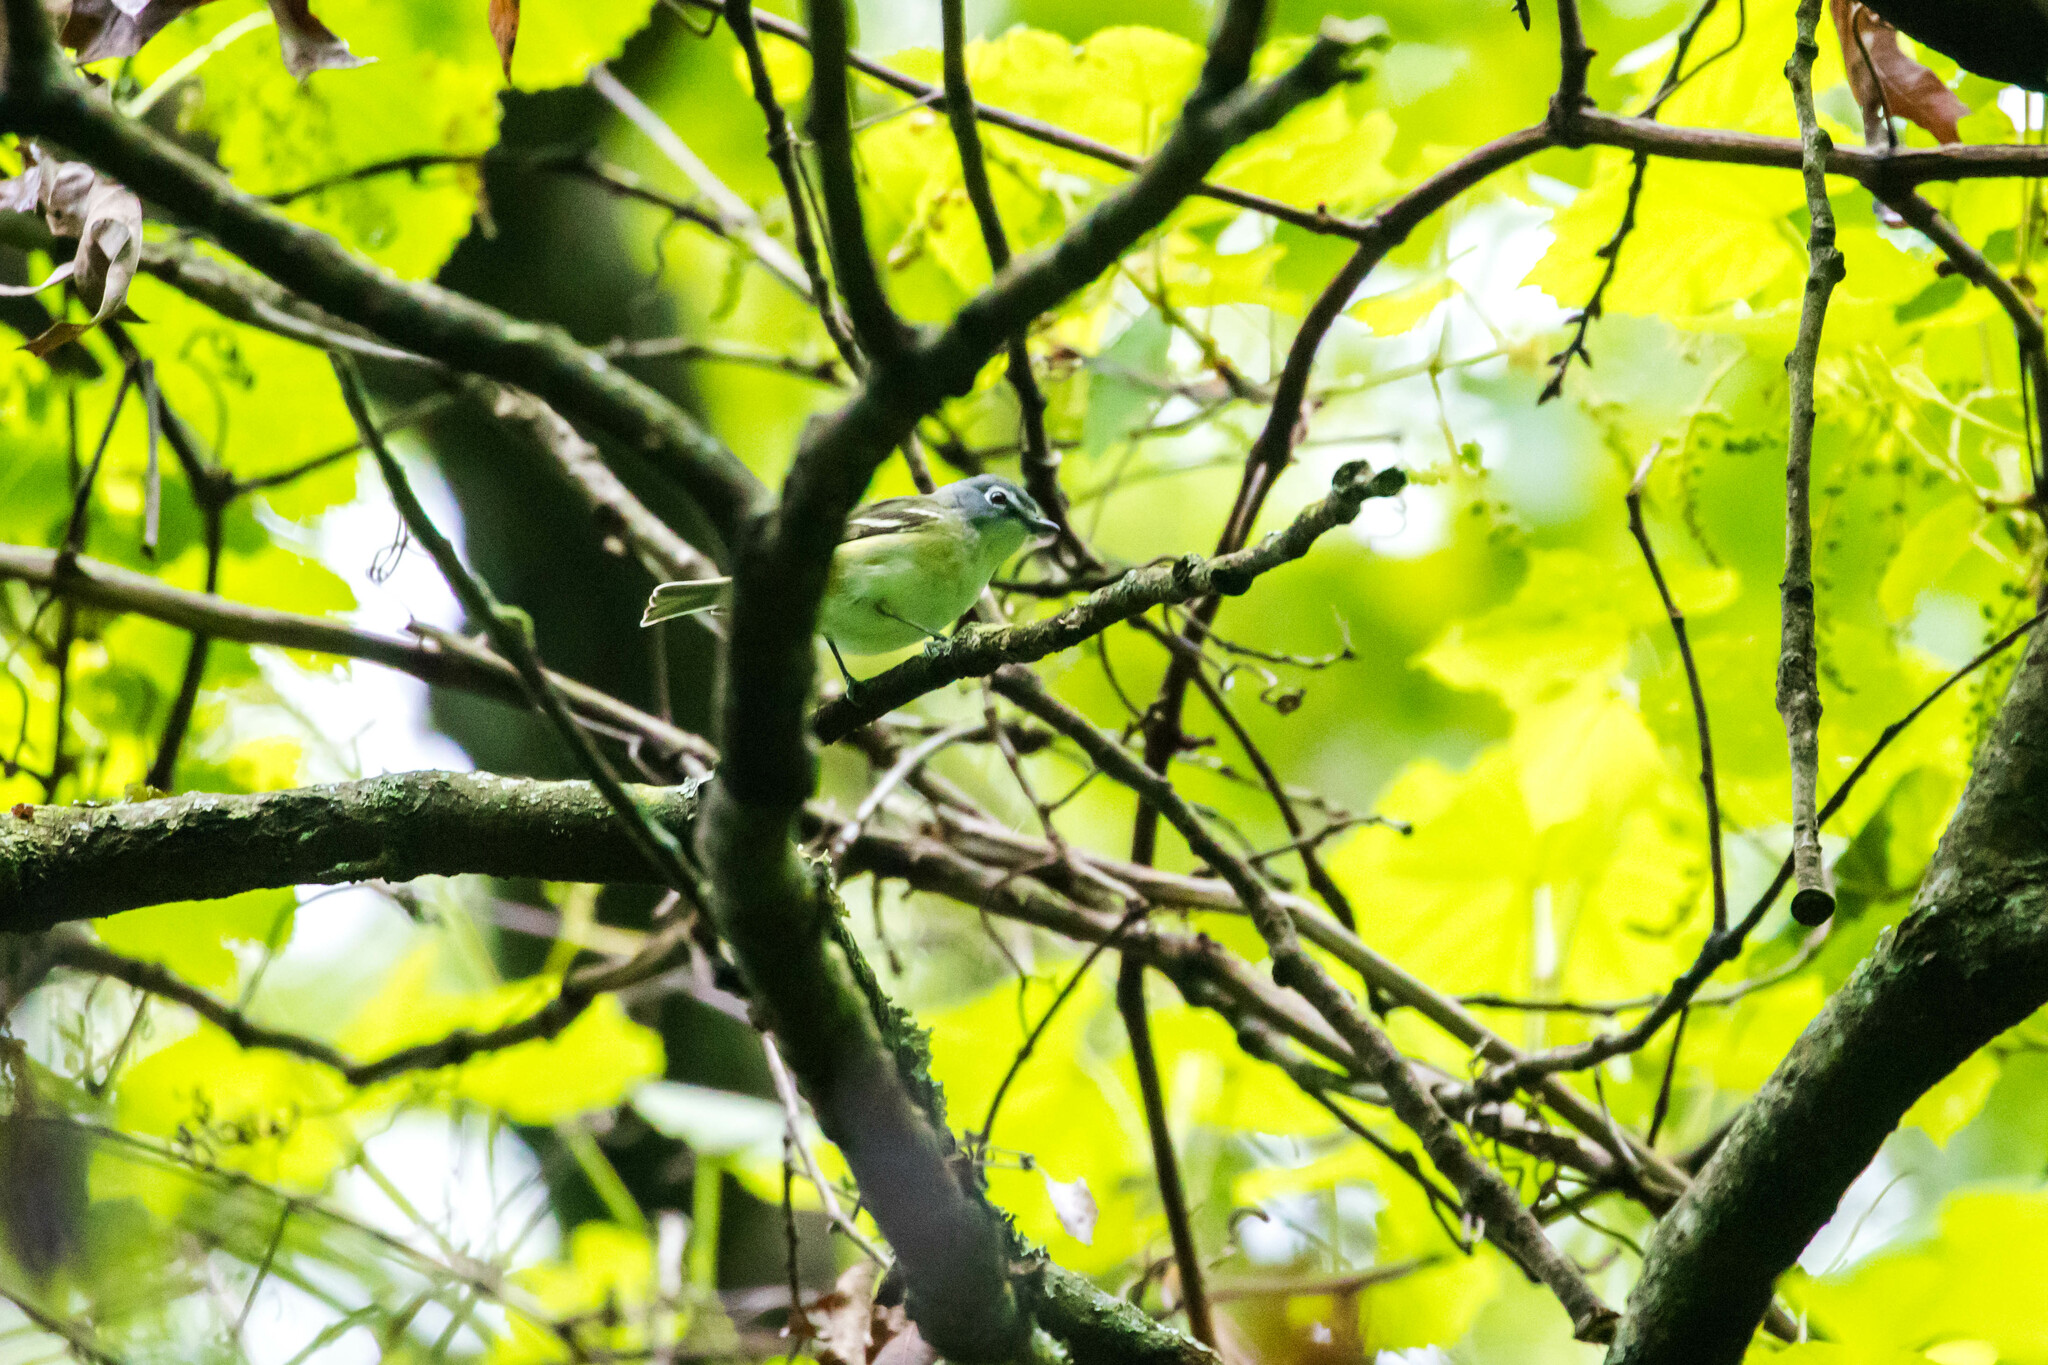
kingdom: Animalia
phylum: Chordata
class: Aves
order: Passeriformes
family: Vireonidae
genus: Vireo
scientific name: Vireo solitarius
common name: Blue-headed vireo
